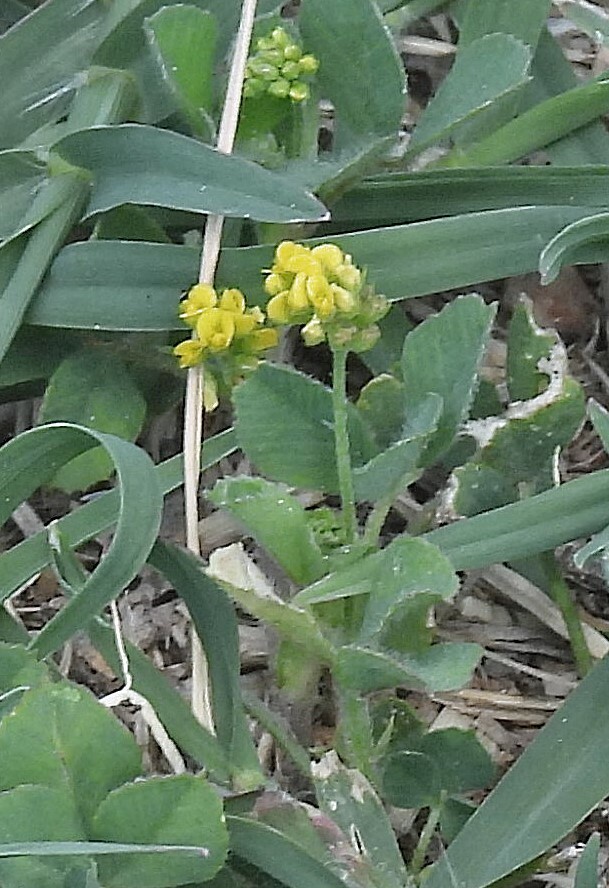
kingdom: Plantae
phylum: Tracheophyta
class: Magnoliopsida
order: Fabales
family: Fabaceae
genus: Medicago
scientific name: Medicago lupulina
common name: Black medick
